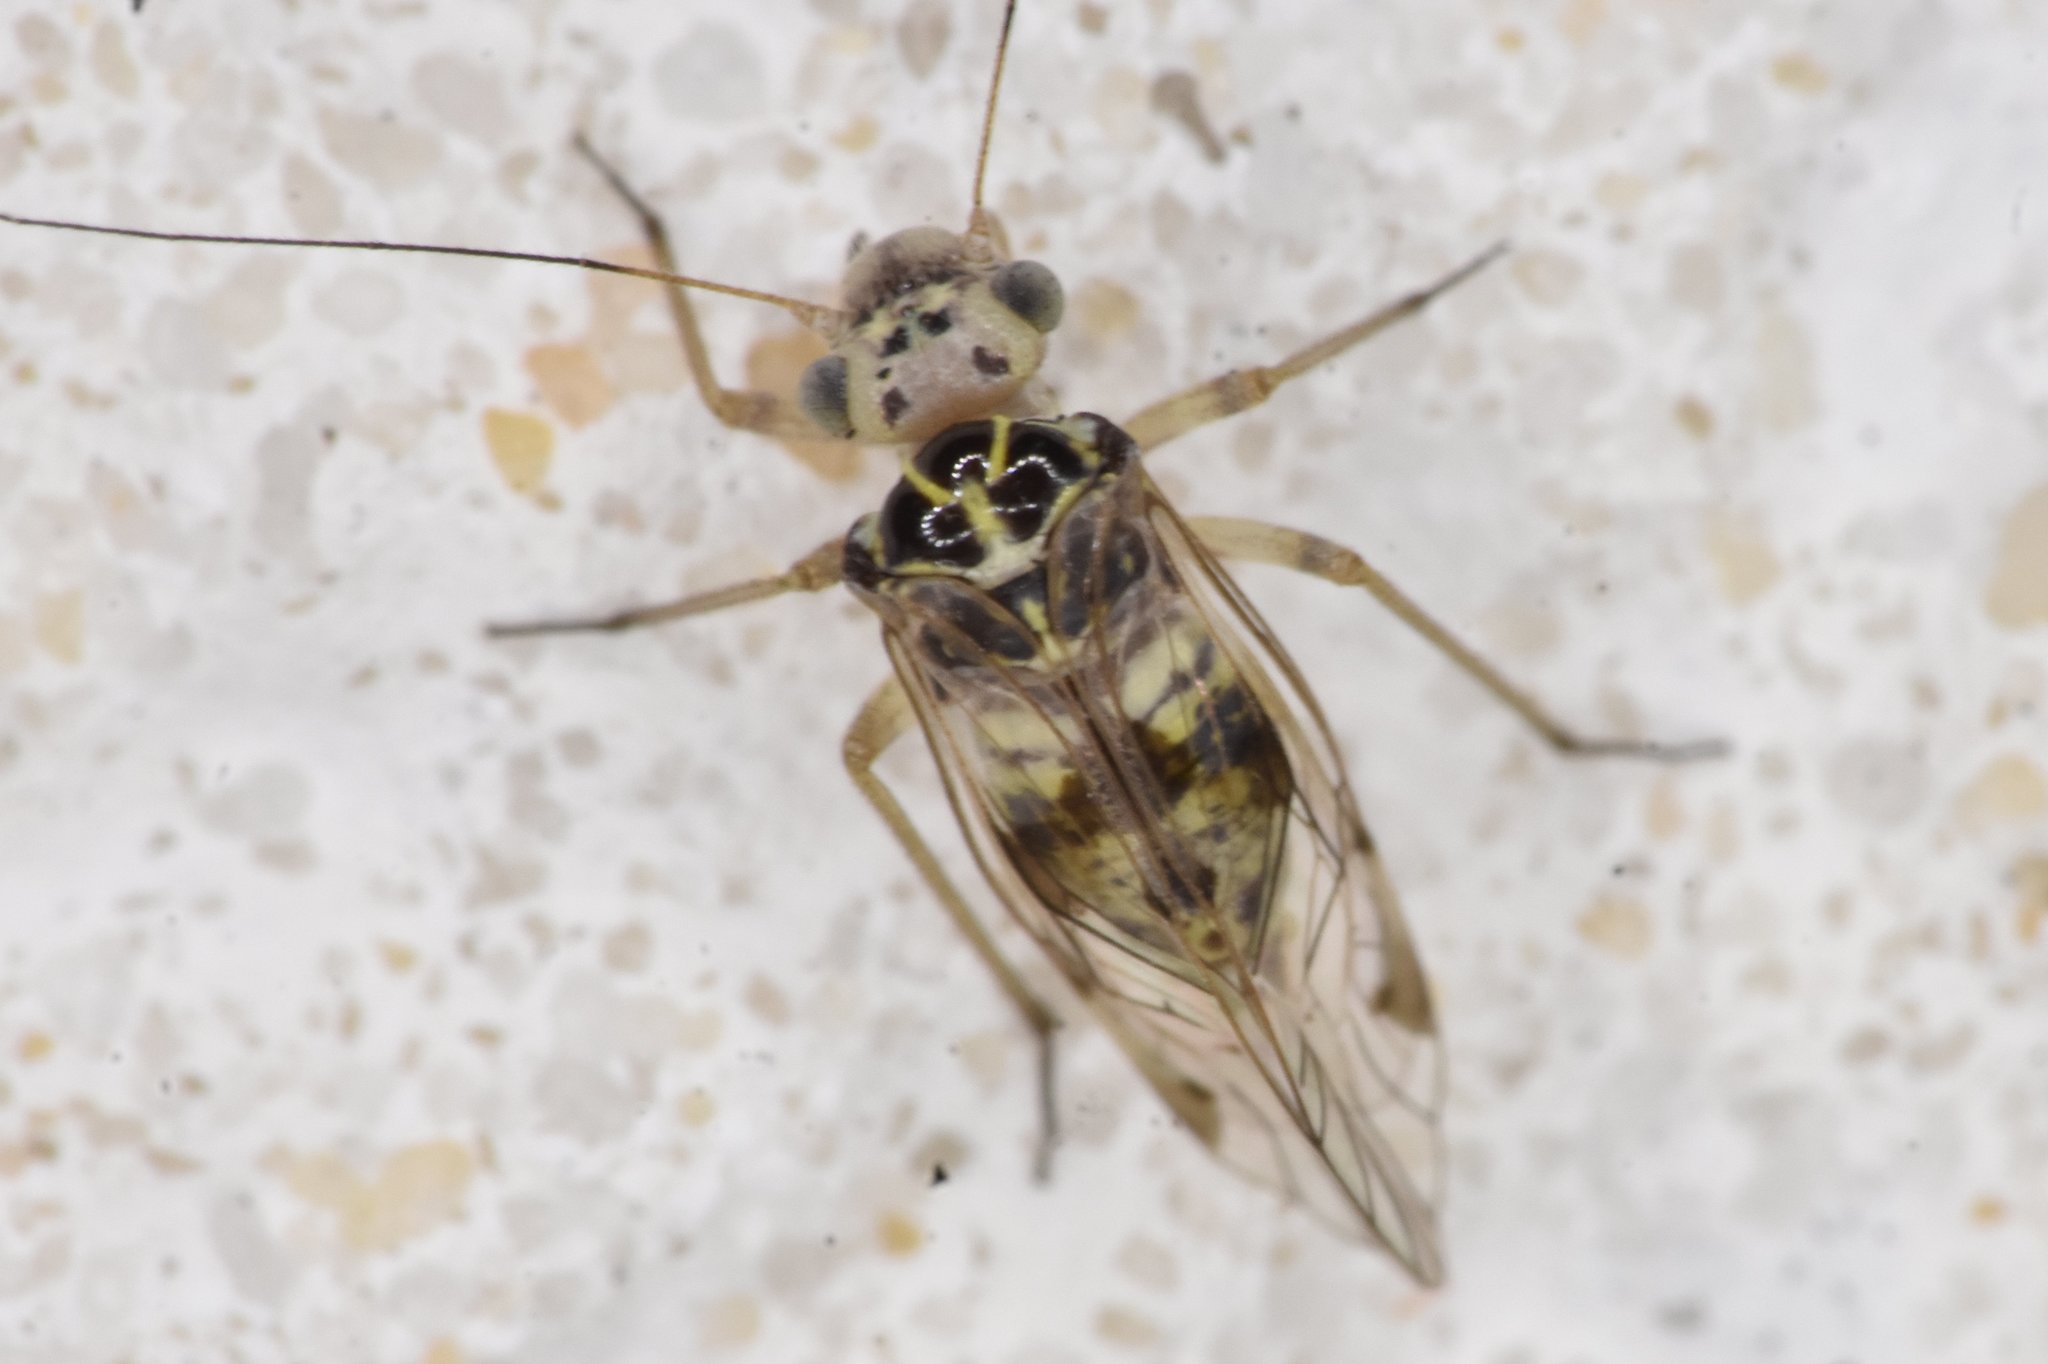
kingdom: Animalia
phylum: Arthropoda
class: Insecta
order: Psocodea
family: Psocidae
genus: Metylophorus
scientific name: Metylophorus novaescotiae
